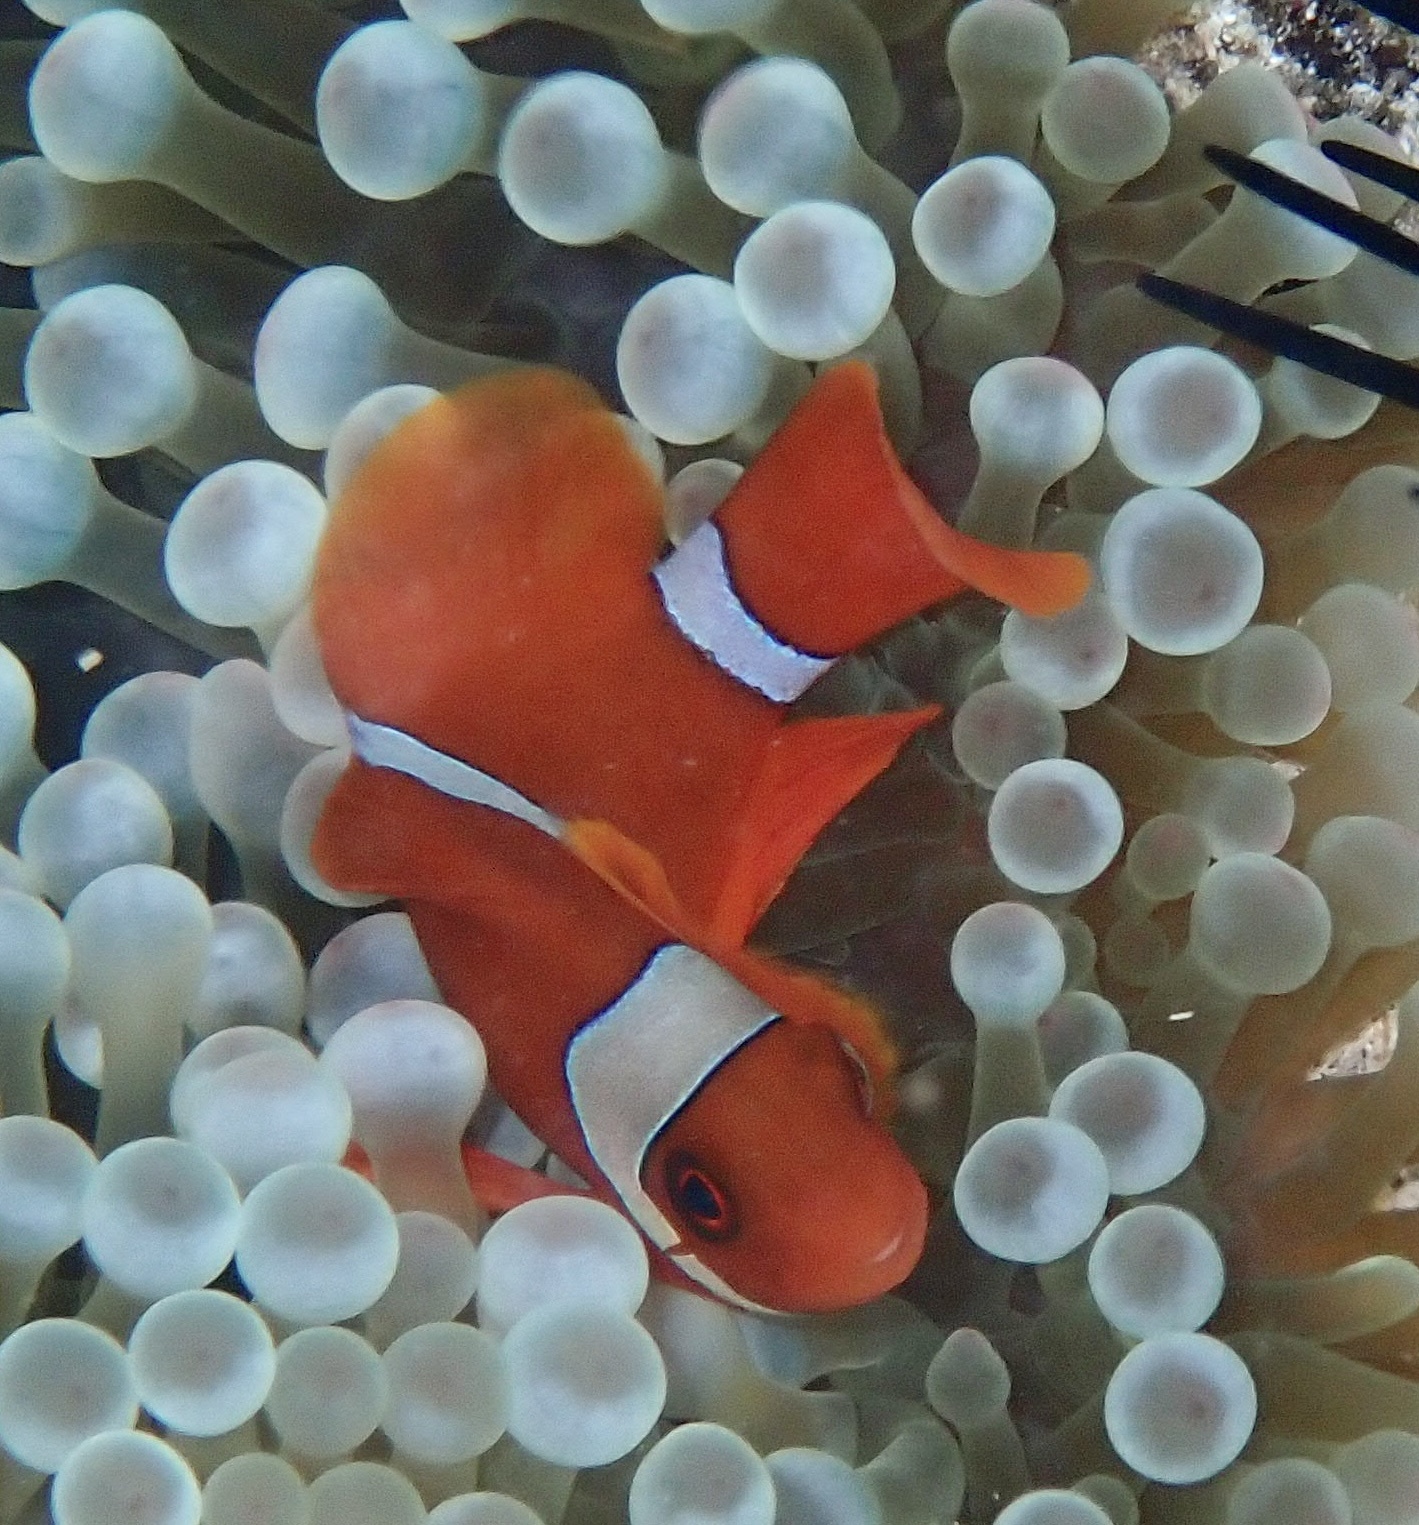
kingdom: Animalia
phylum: Chordata
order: Perciformes
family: Pomacentridae
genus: Premnas
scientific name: Premnas biaculeatus
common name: Spinecheek anemonefish
